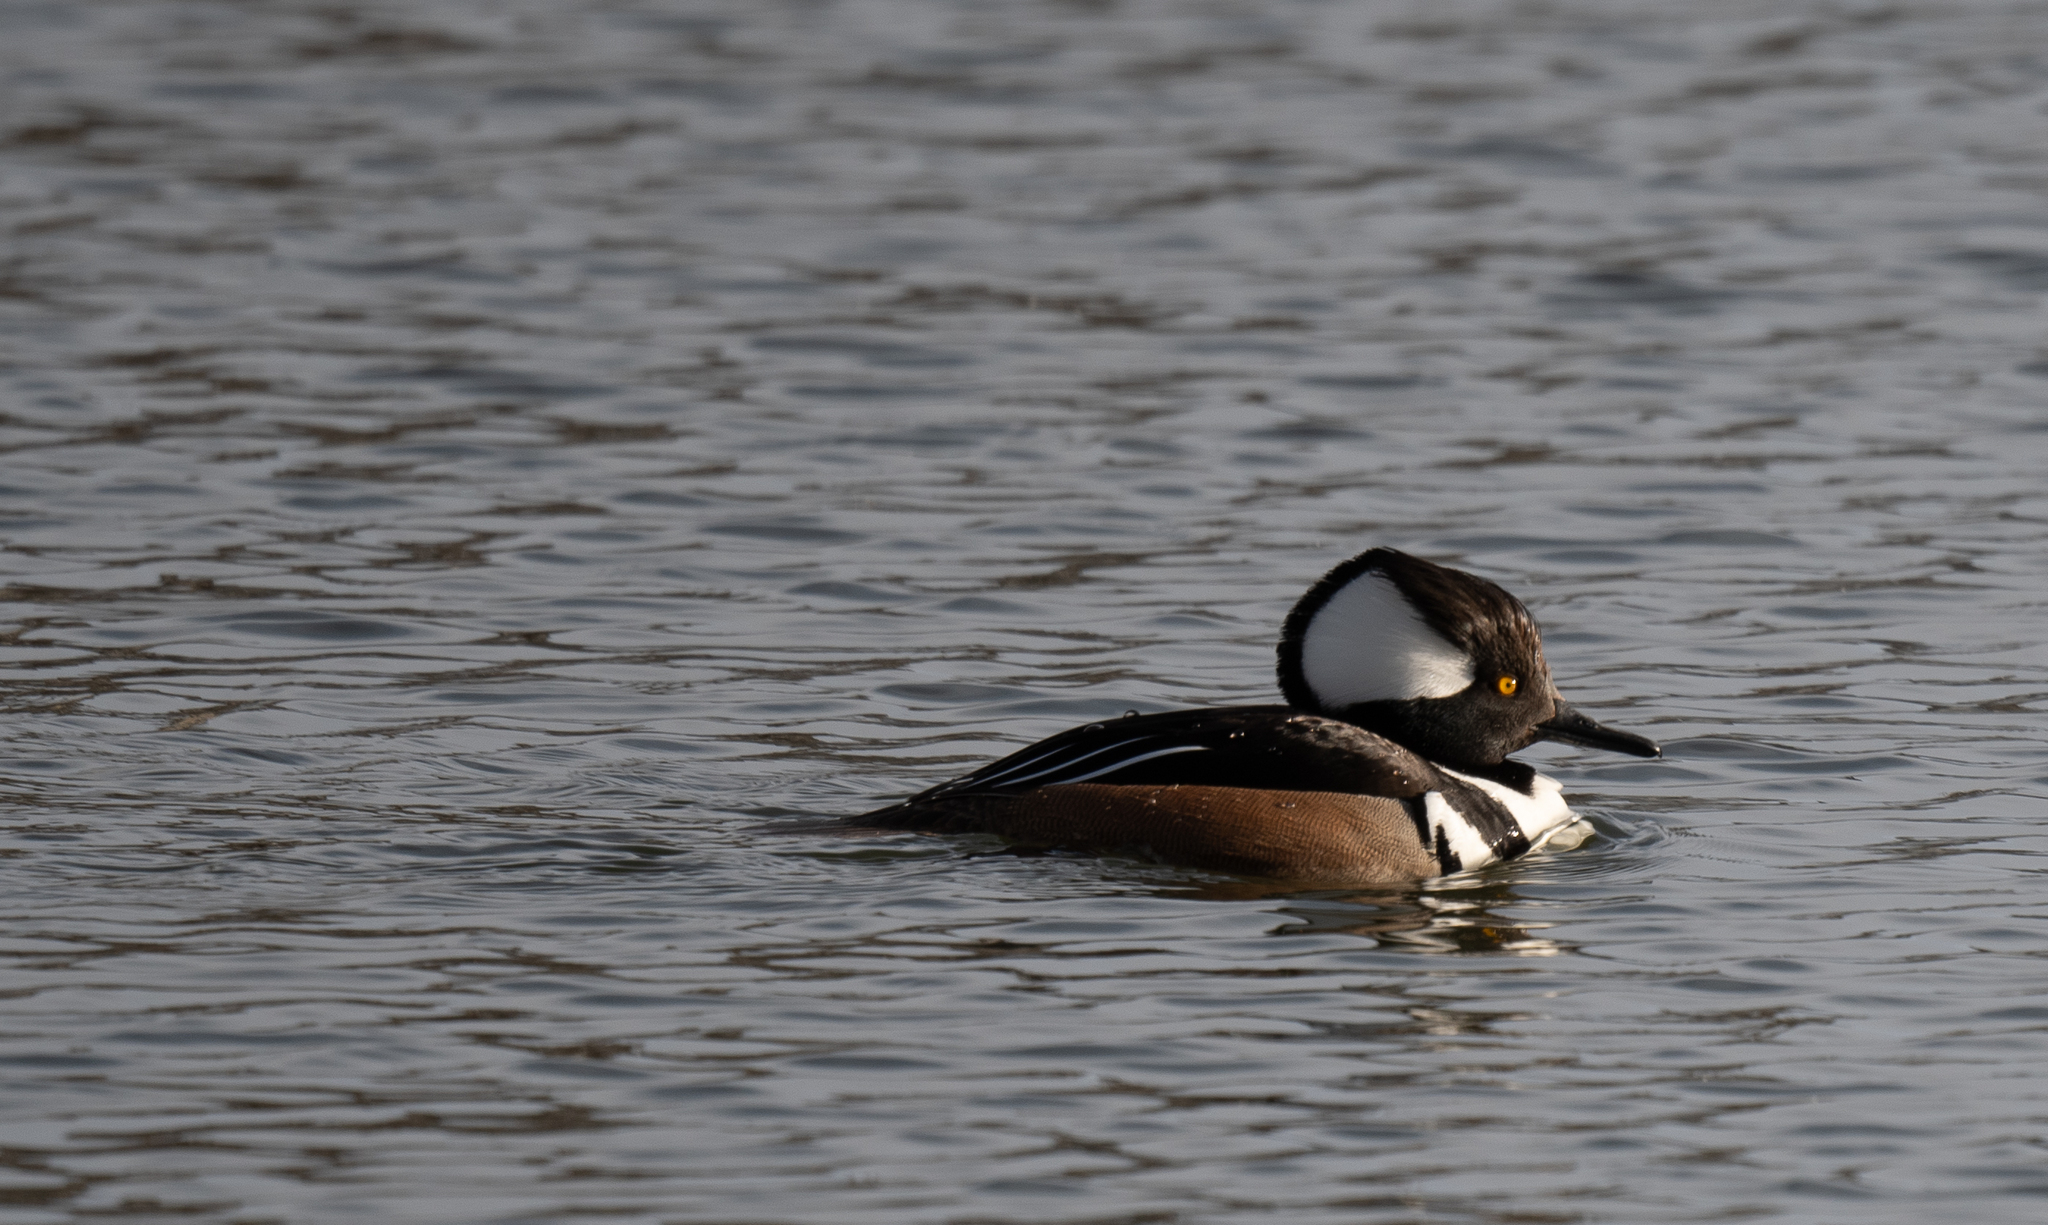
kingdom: Animalia
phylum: Chordata
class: Aves
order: Anseriformes
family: Anatidae
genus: Lophodytes
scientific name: Lophodytes cucullatus
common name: Hooded merganser
